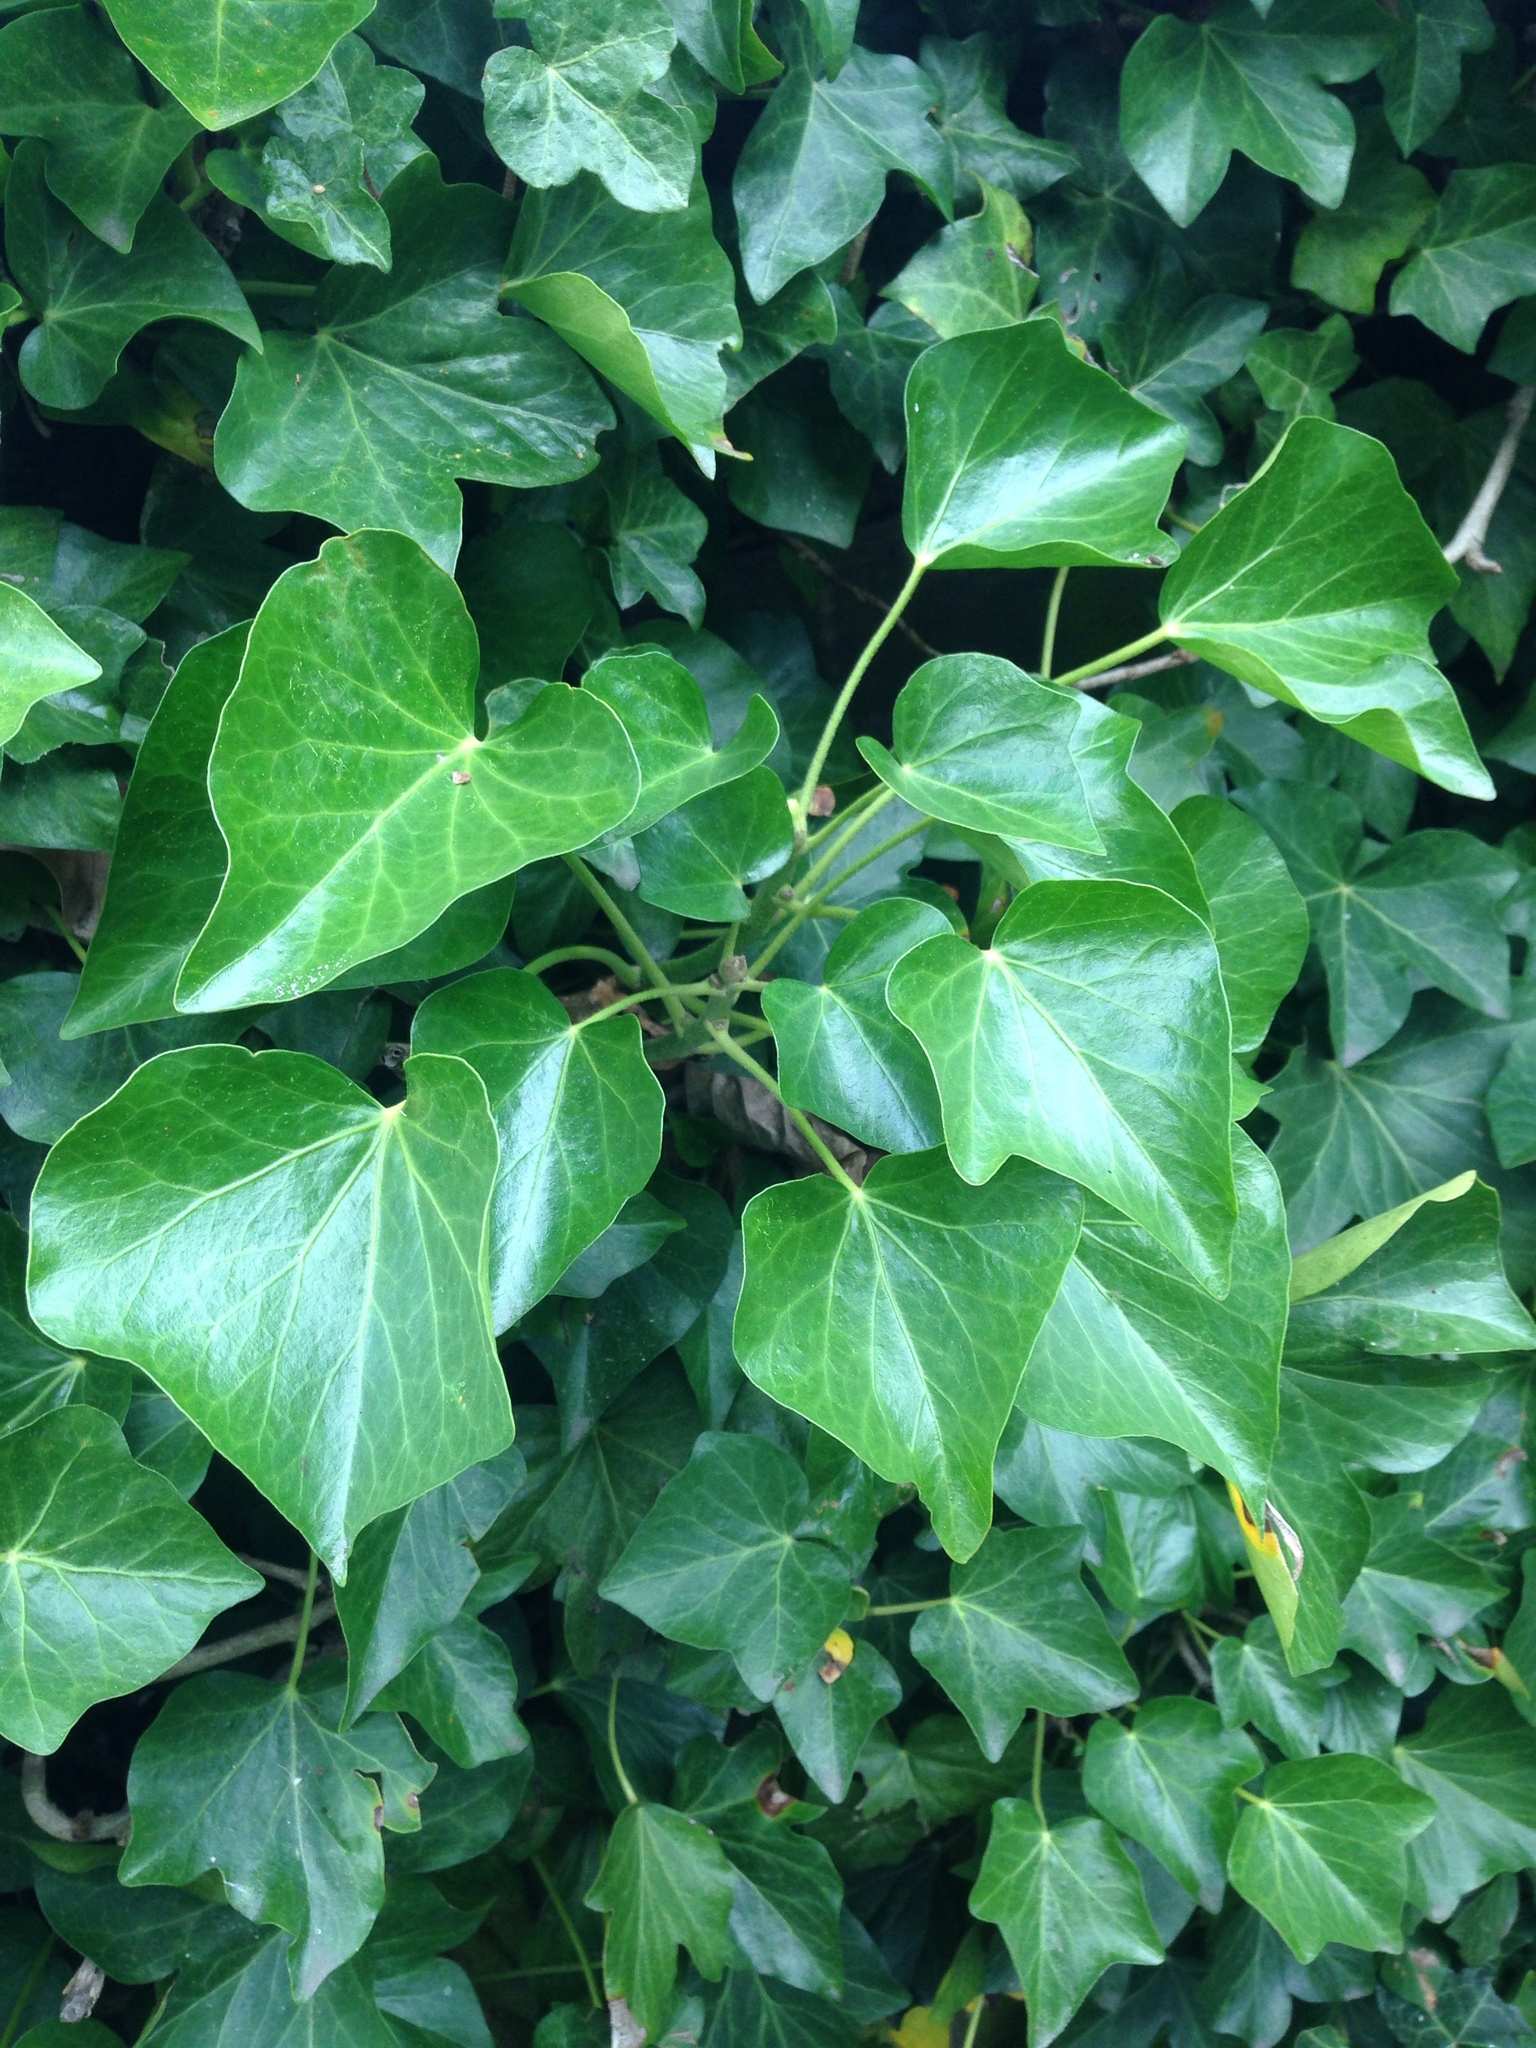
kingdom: Plantae
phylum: Tracheophyta
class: Magnoliopsida
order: Apiales
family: Araliaceae
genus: Hedera
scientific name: Hedera helix
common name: Ivy
